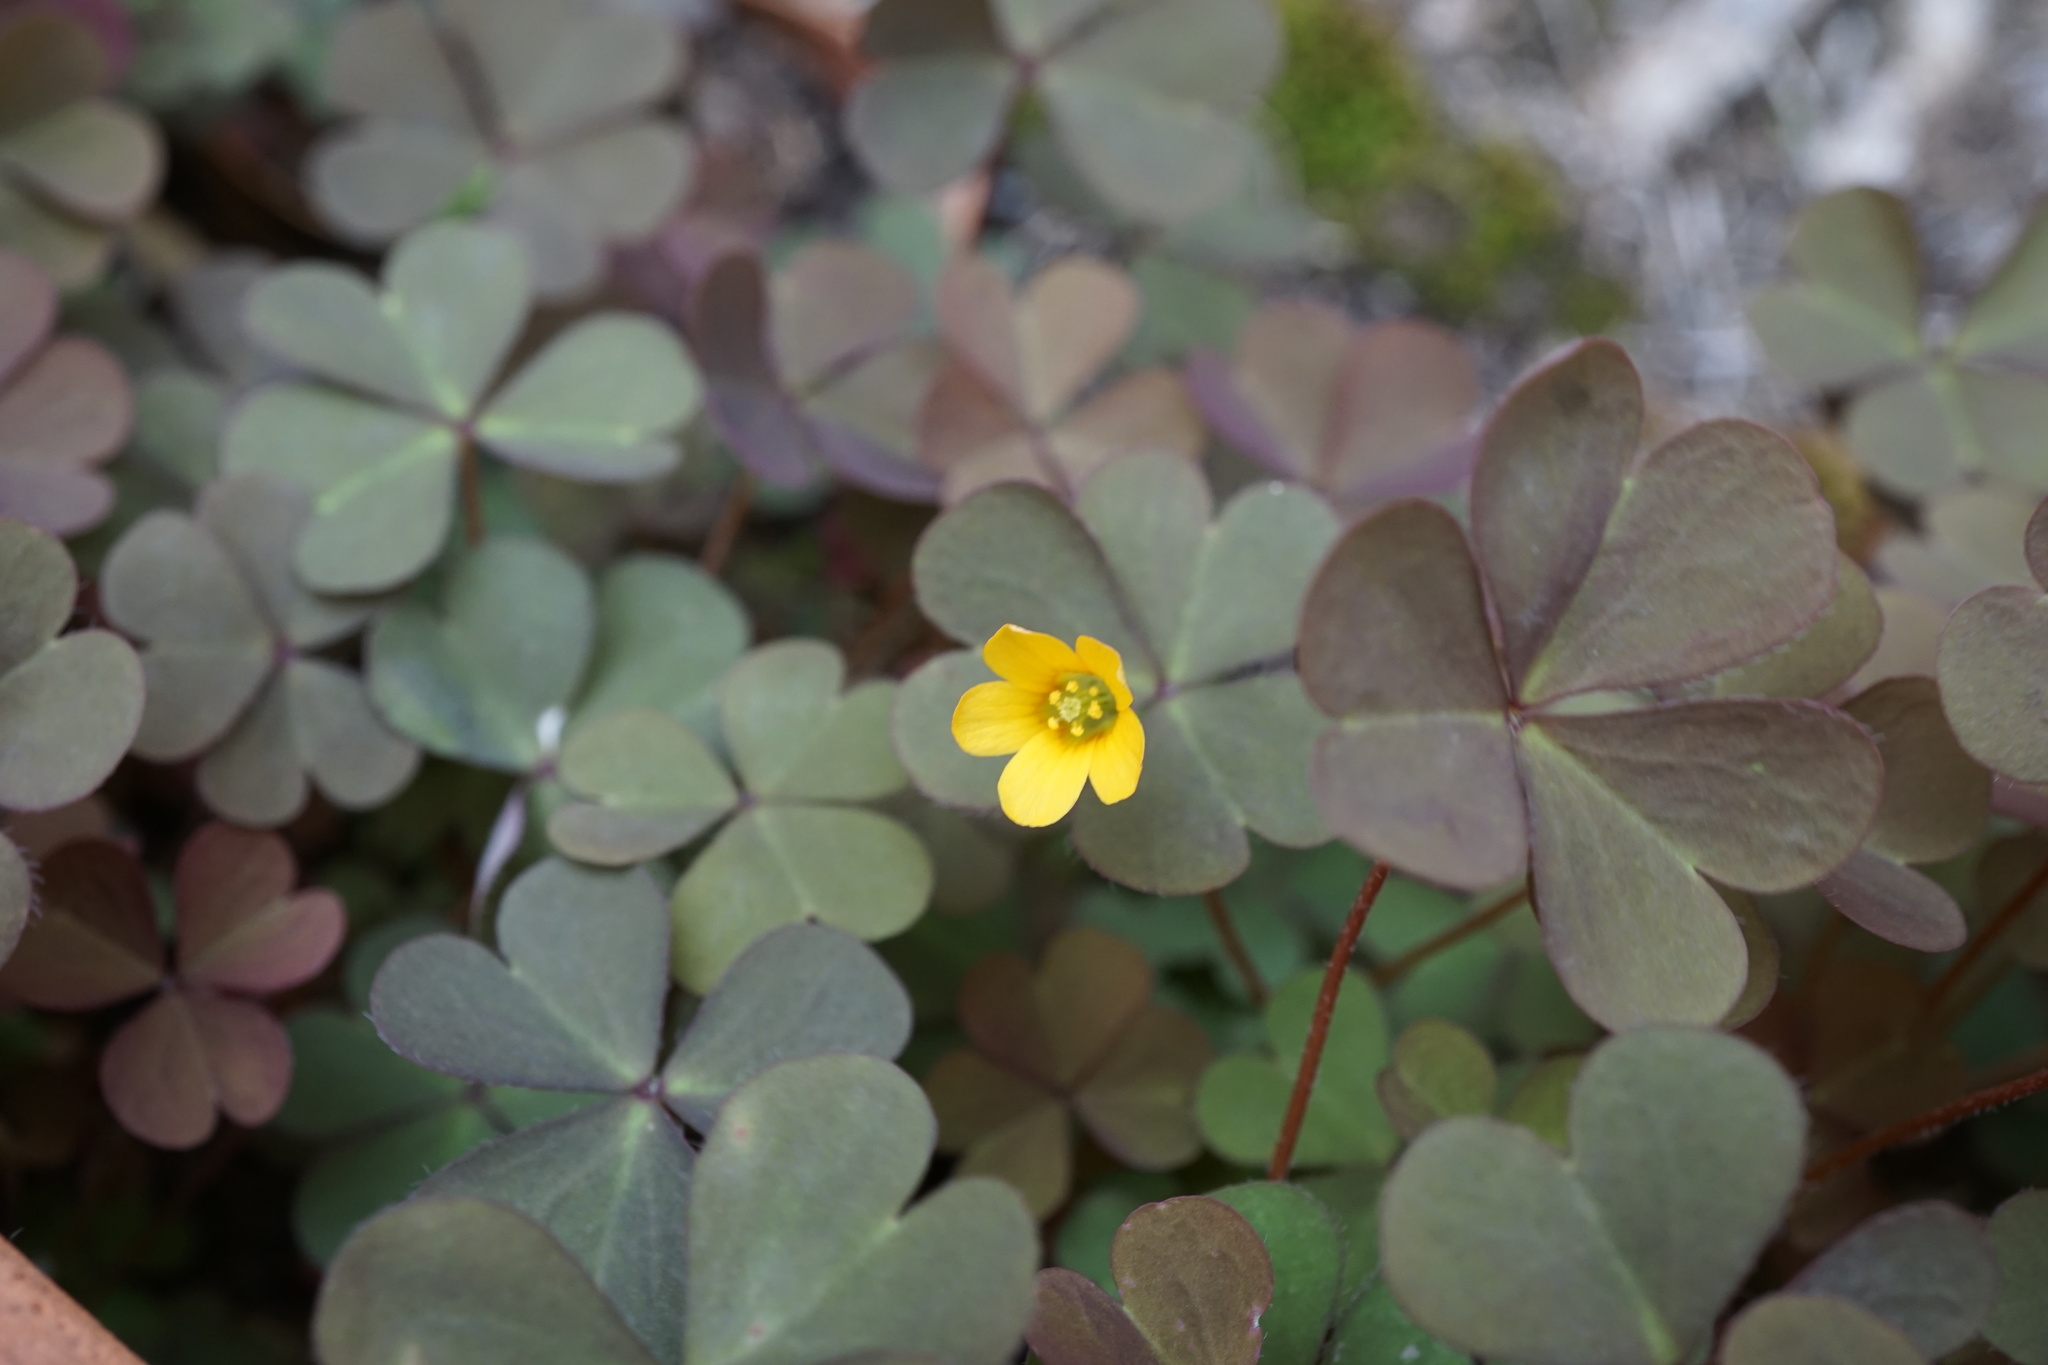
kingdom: Plantae
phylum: Tracheophyta
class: Magnoliopsida
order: Oxalidales
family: Oxalidaceae
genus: Oxalis
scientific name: Oxalis corniculata
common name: Procumbent yellow-sorrel
